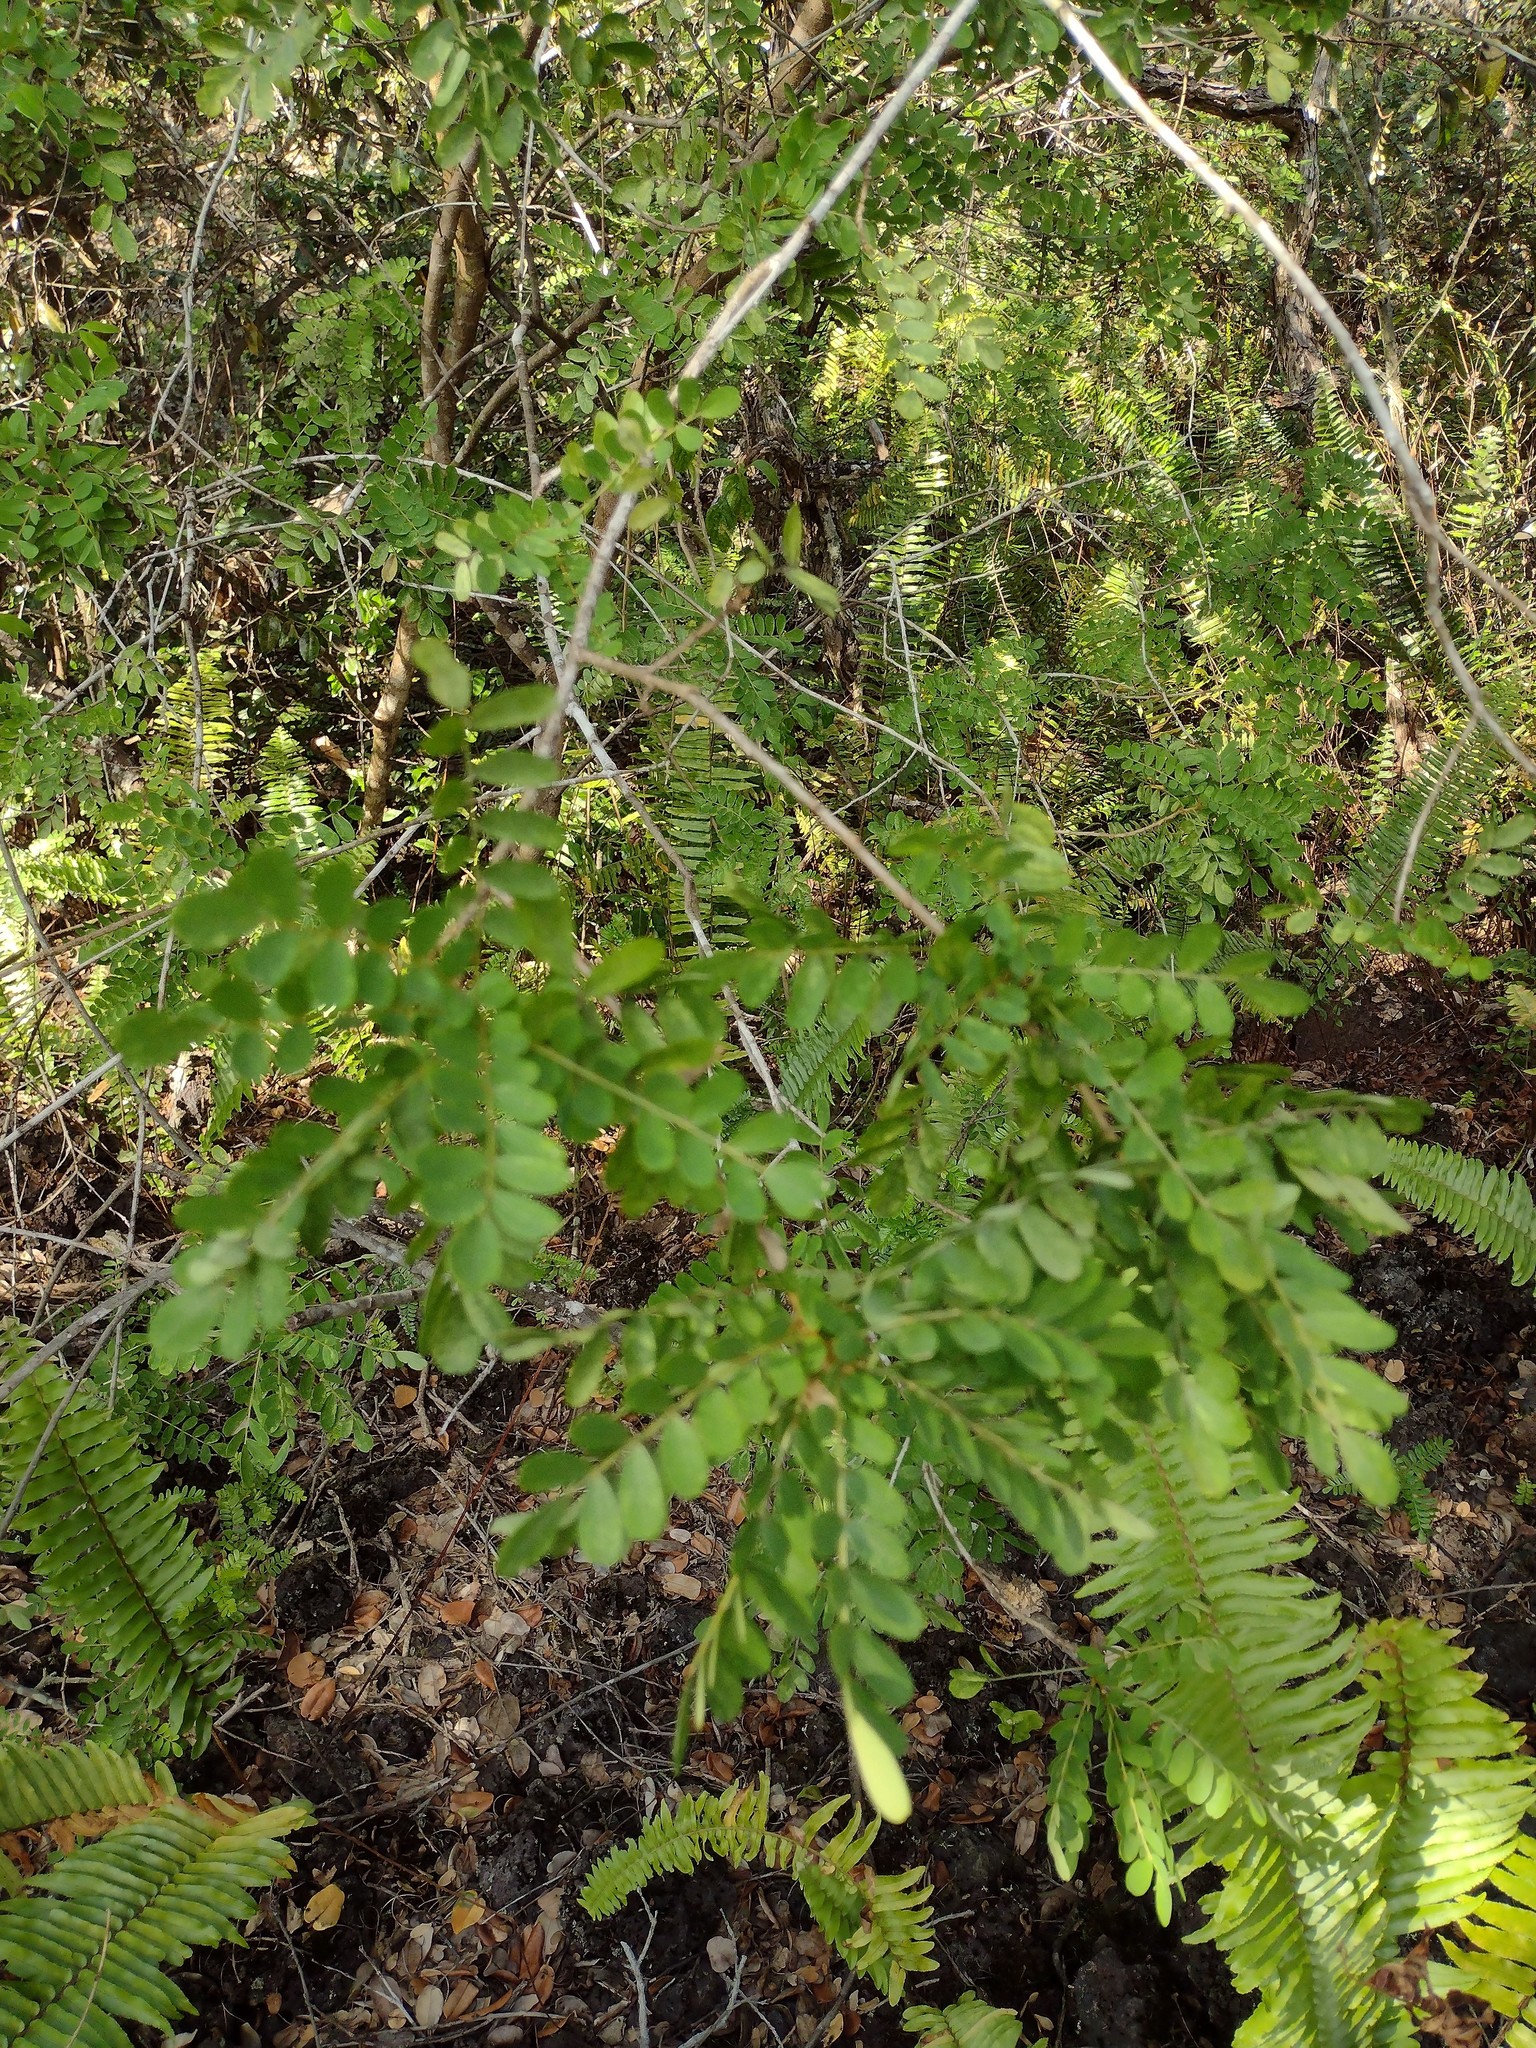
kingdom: Plantae
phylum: Tracheophyta
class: Magnoliopsida
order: Fabales
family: Fabaceae
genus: Sophora
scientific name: Sophora chrysophylla
